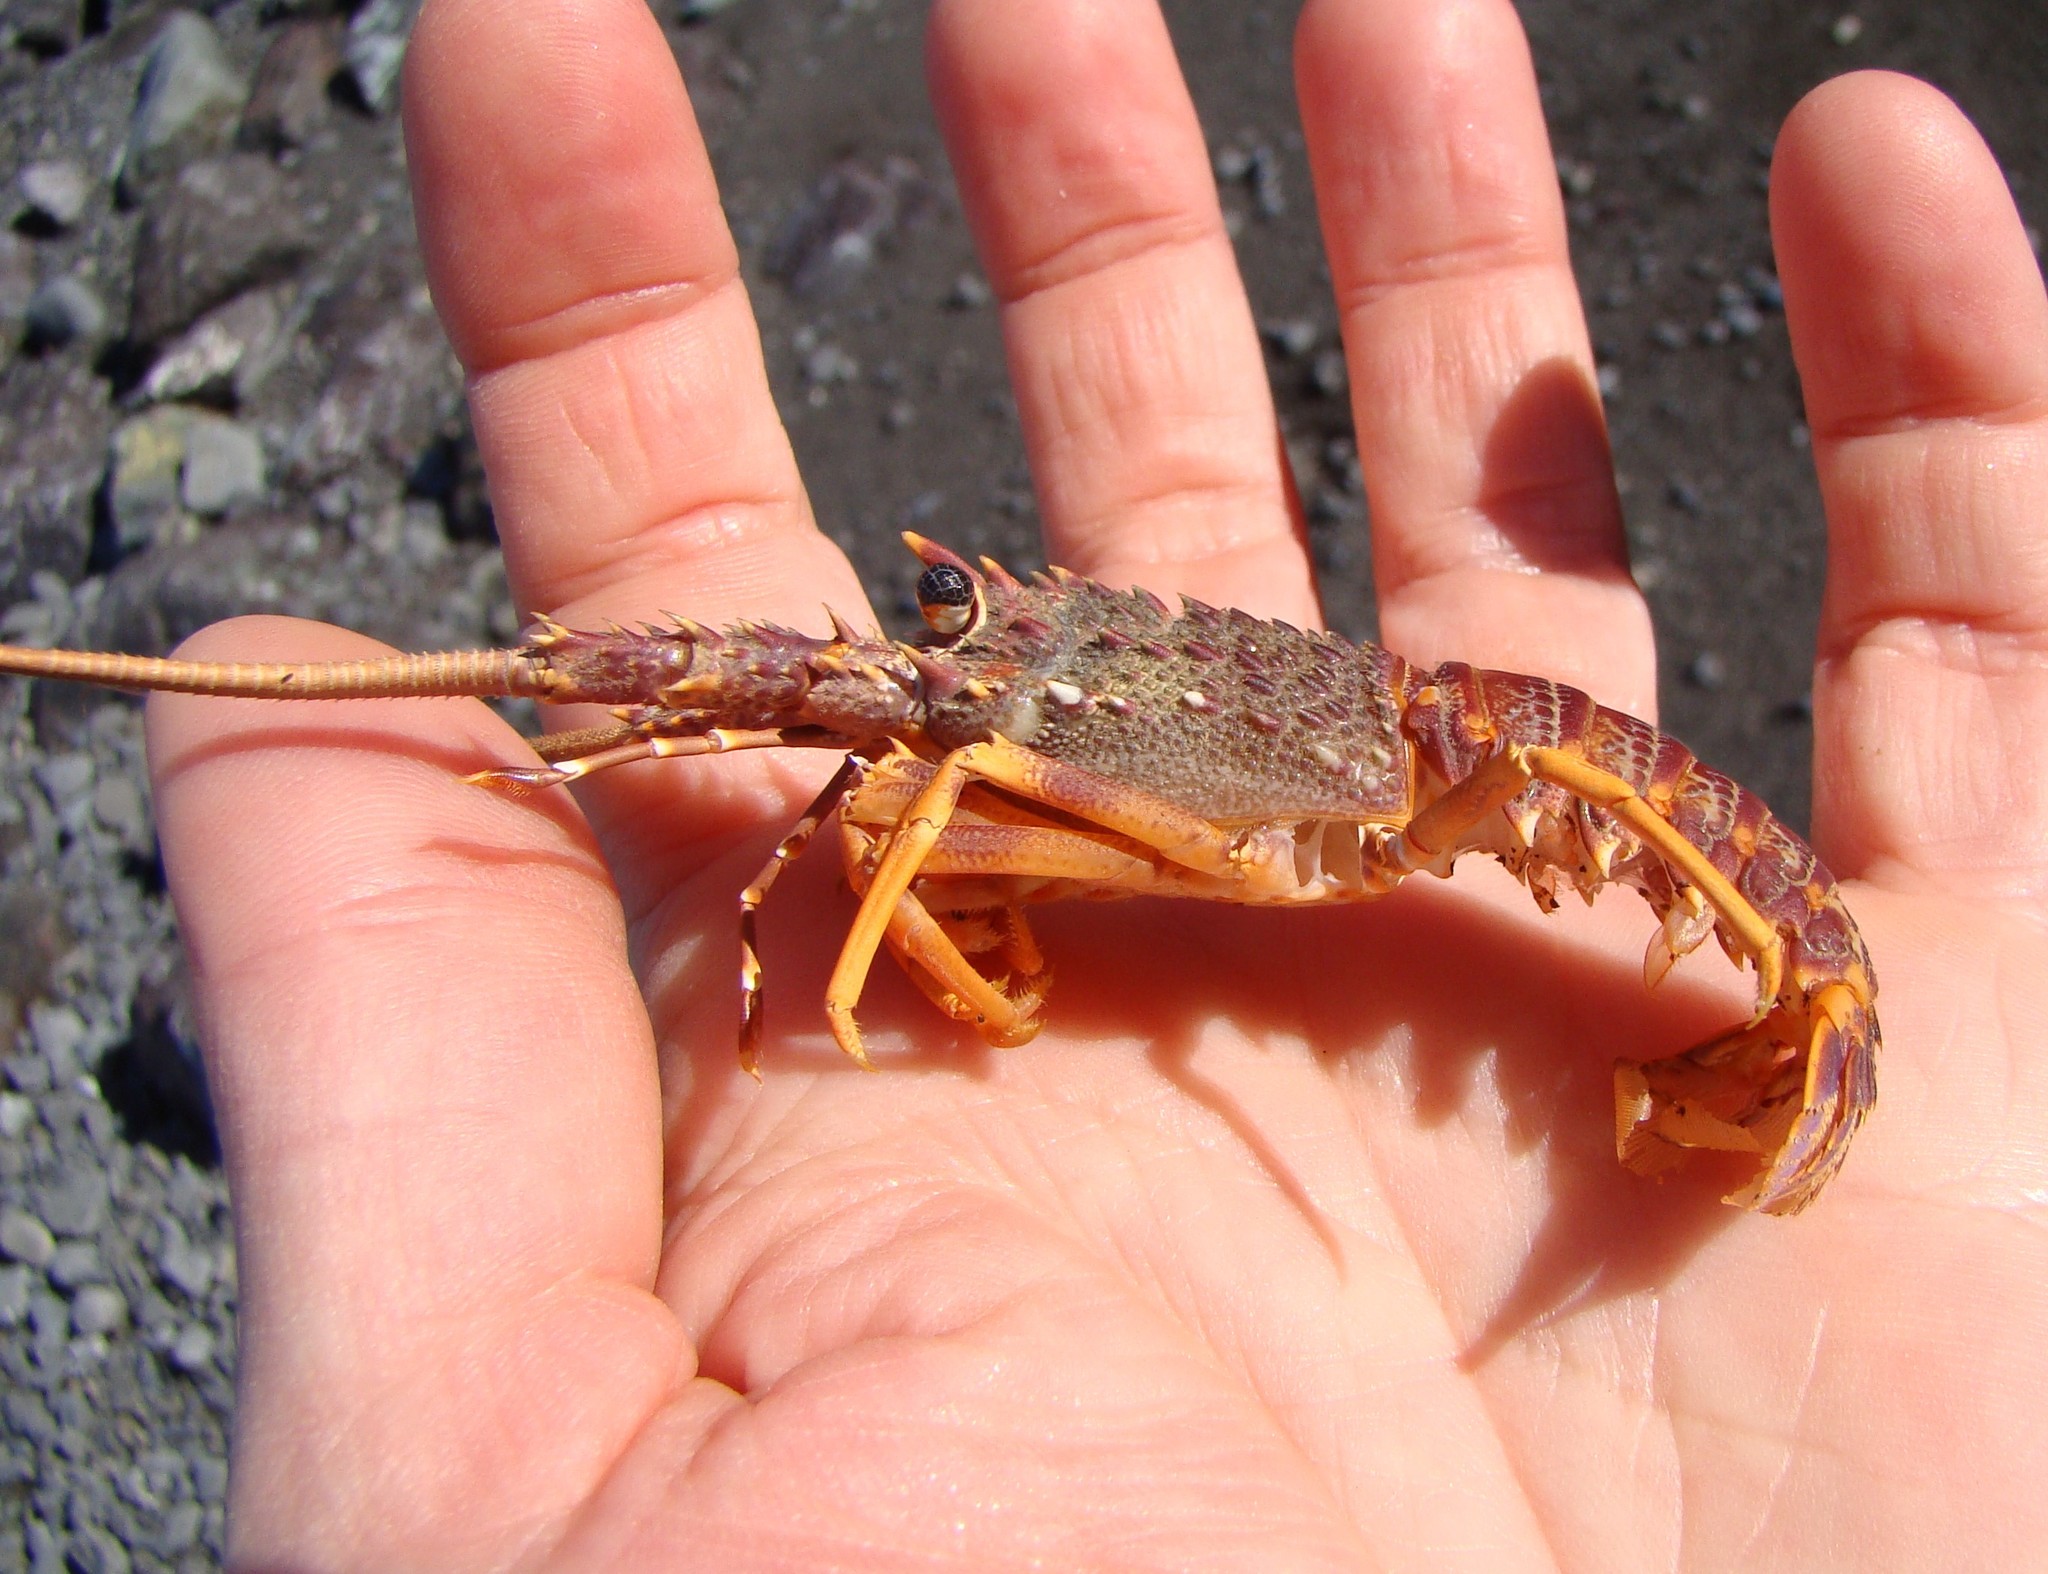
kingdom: Animalia
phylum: Arthropoda
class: Malacostraca
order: Decapoda
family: Palinuridae
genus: Jasus
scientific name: Jasus edwardsii
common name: Red rock lobster
